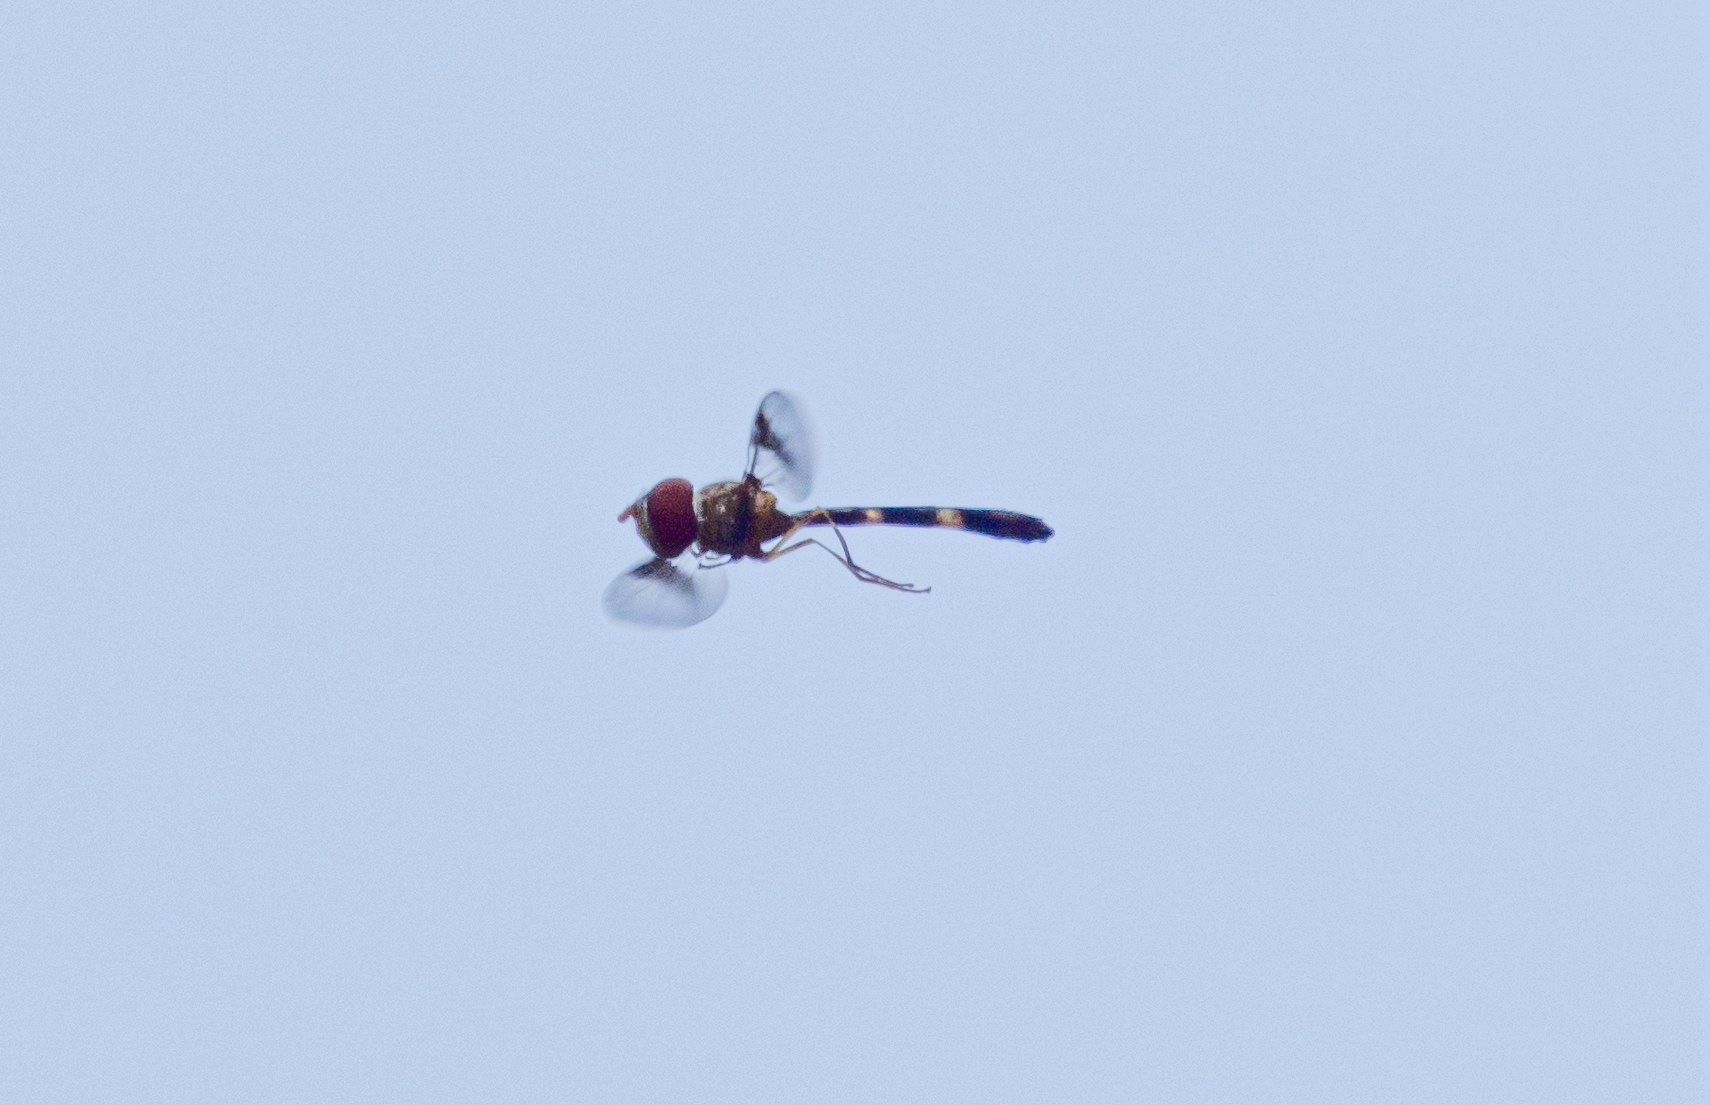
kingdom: Animalia
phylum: Arthropoda
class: Insecta
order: Diptera
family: Syrphidae
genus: Hypocritanus
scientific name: Hypocritanus fascipennis
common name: Eastern band-winged hover fly
